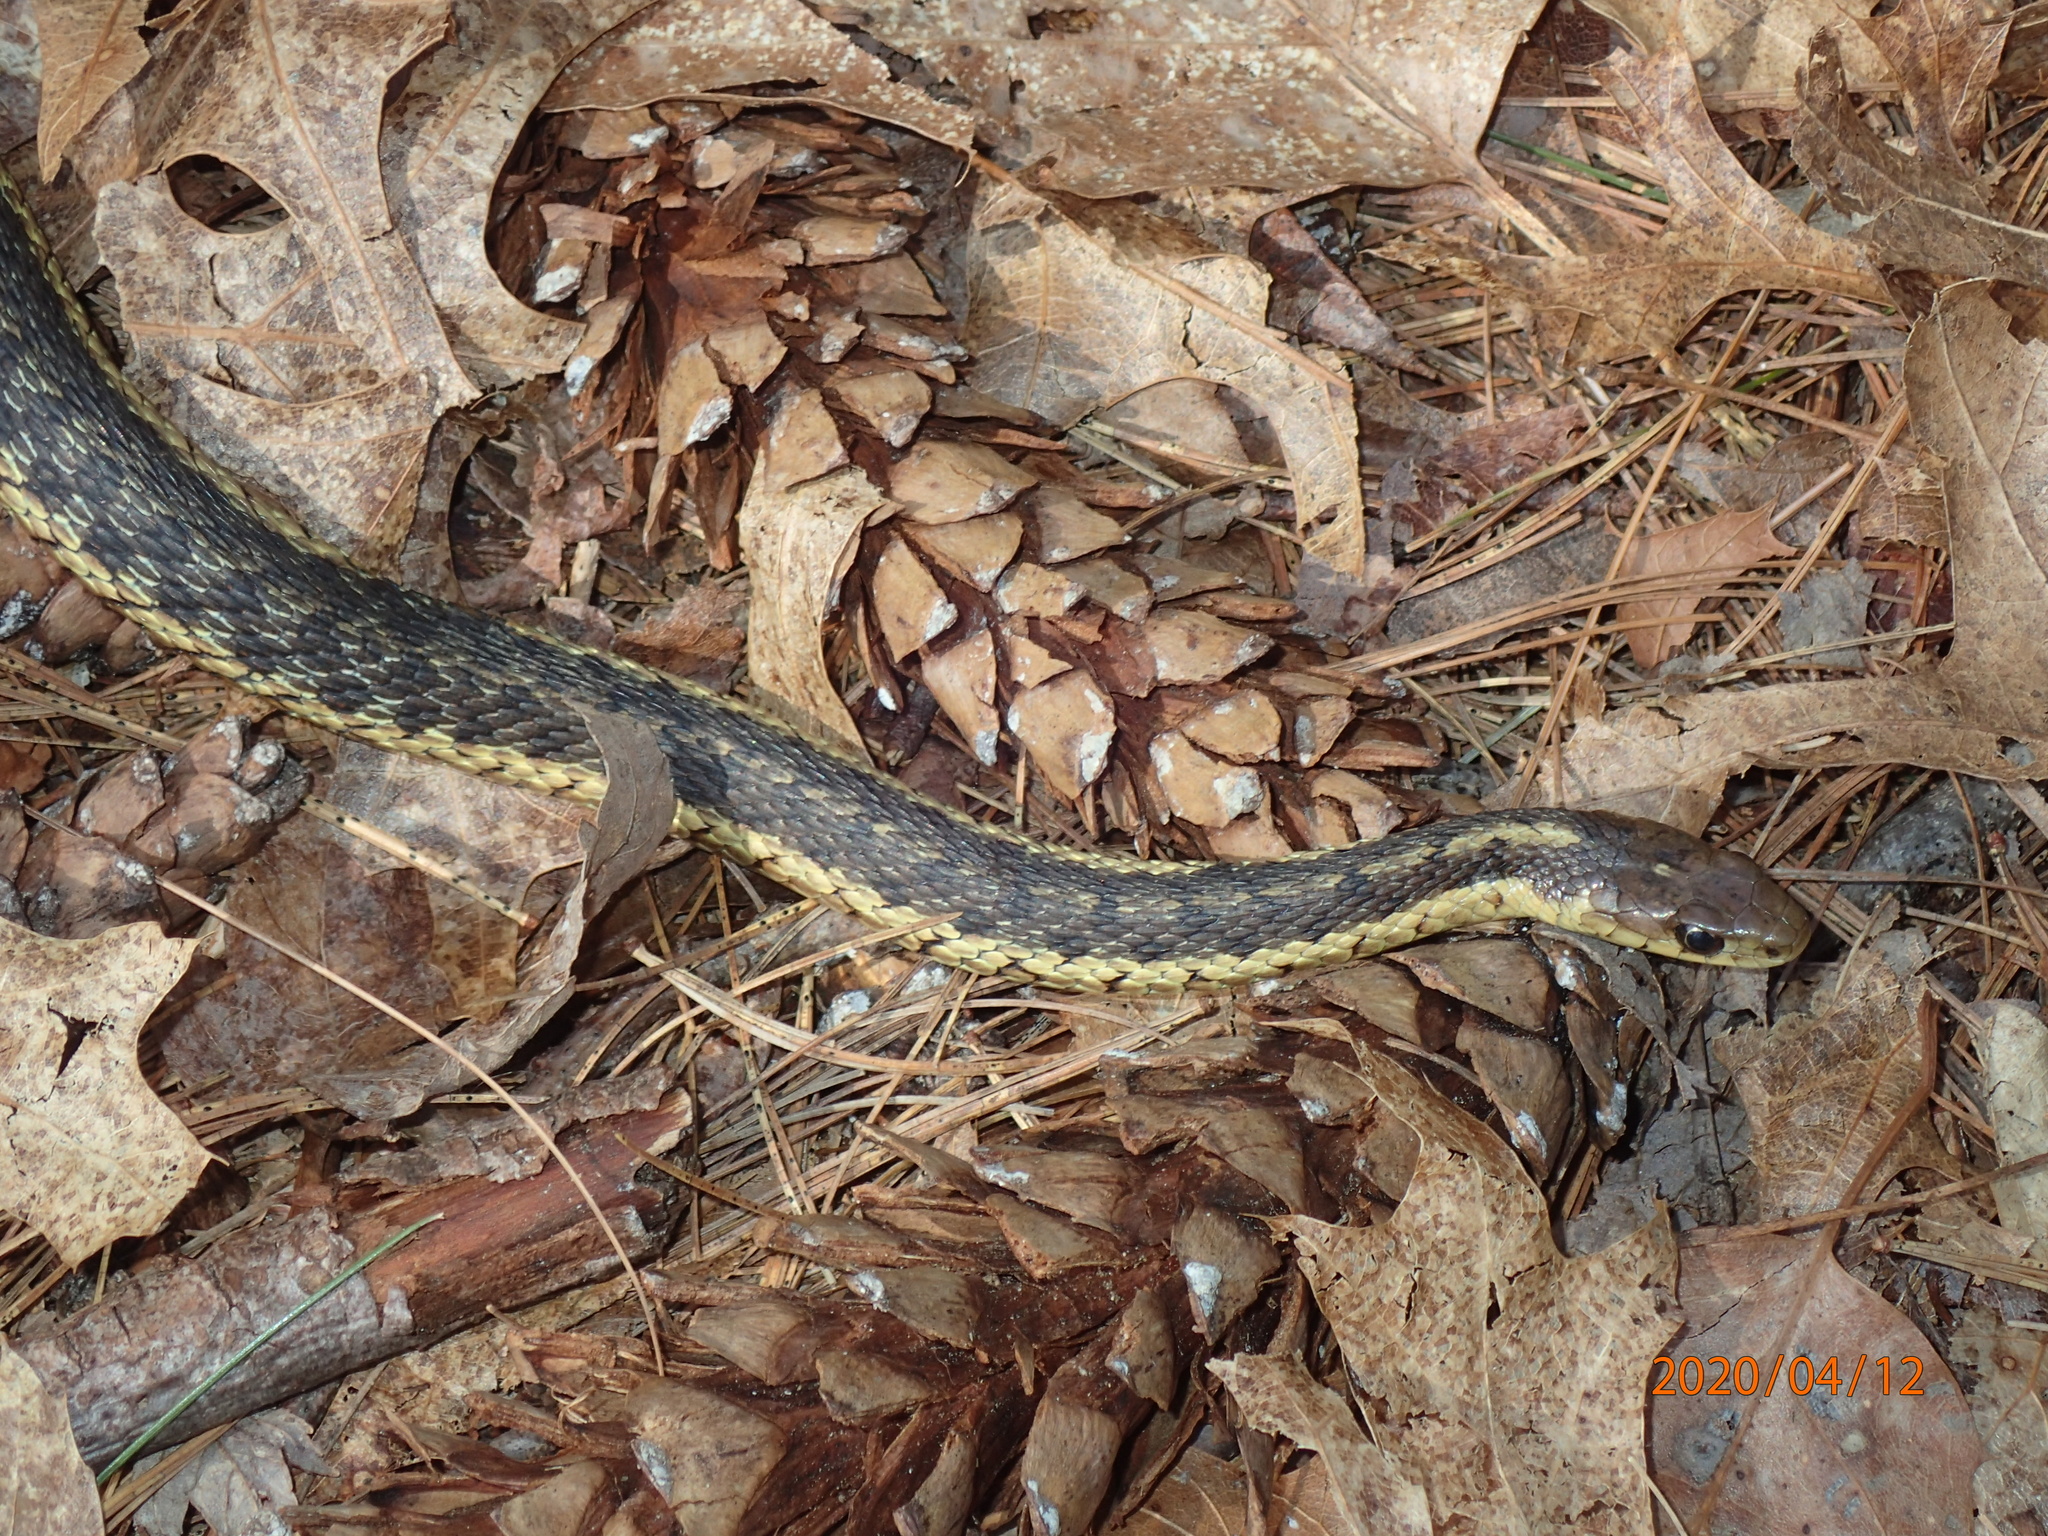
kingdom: Animalia
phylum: Chordata
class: Squamata
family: Colubridae
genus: Thamnophis
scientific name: Thamnophis sirtalis
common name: Common garter snake
